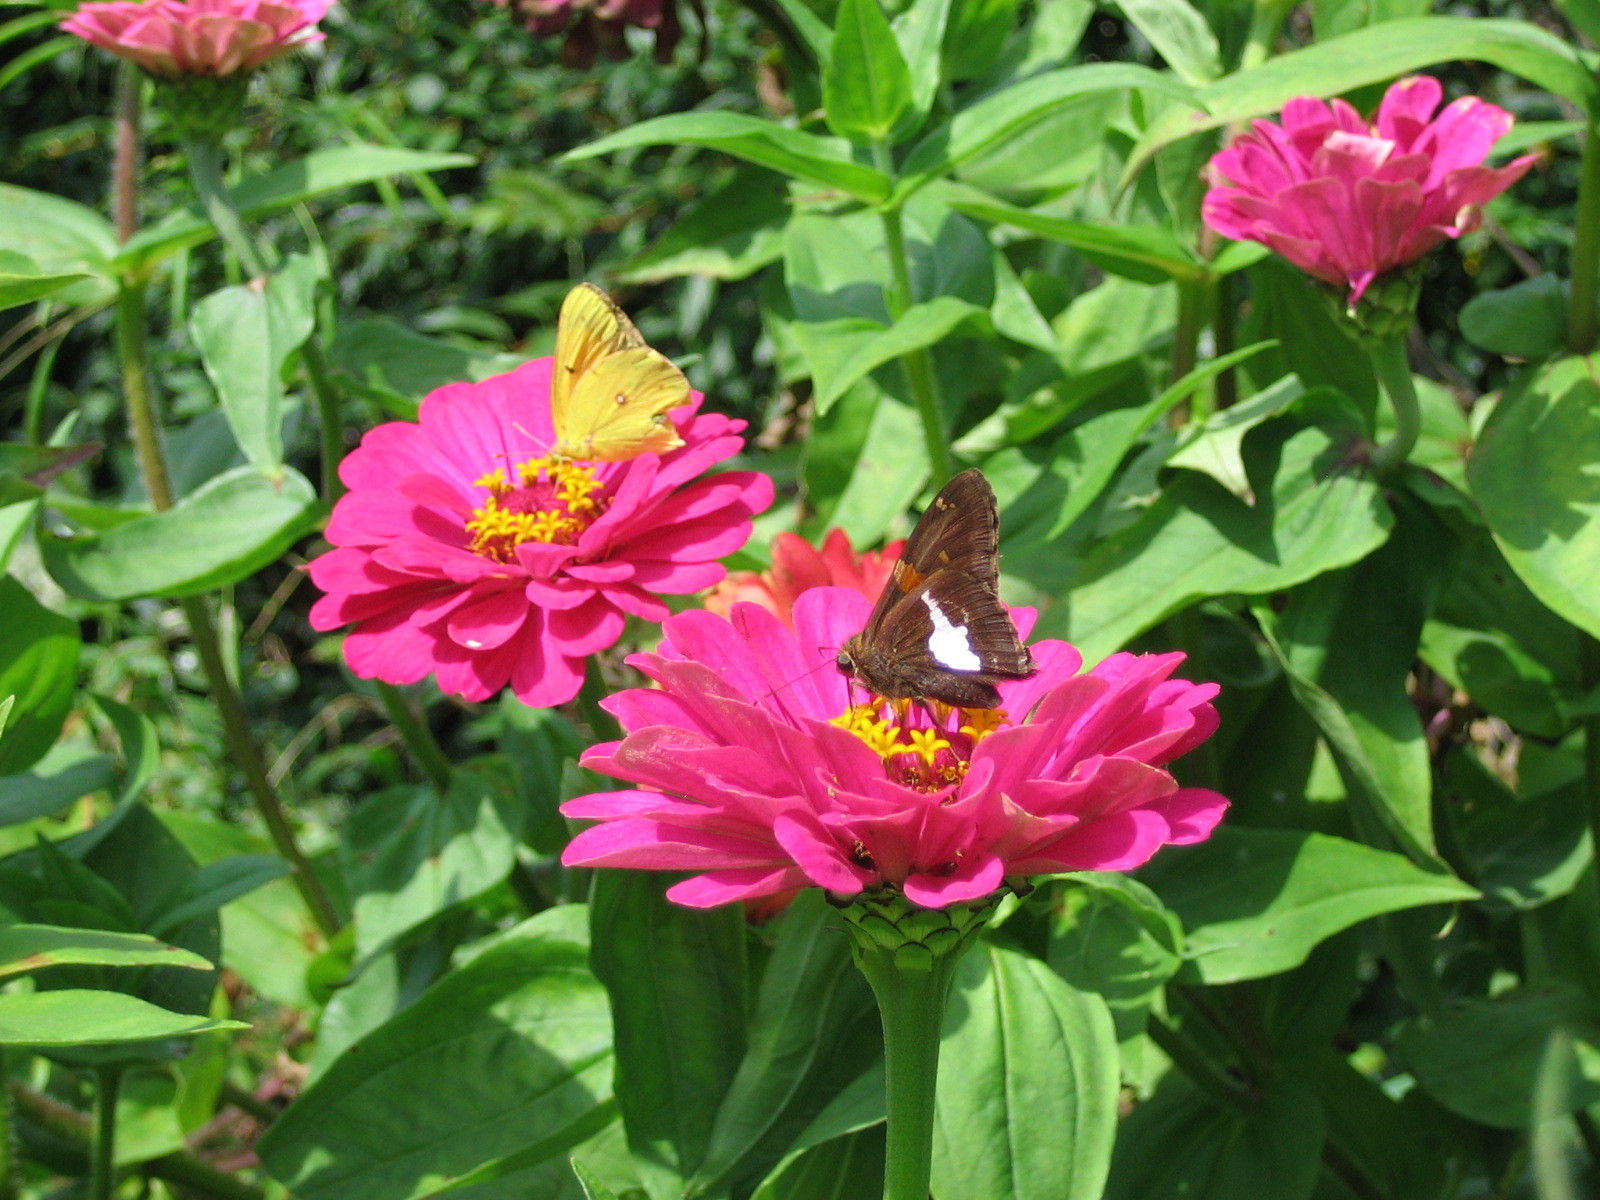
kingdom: Animalia
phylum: Arthropoda
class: Insecta
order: Lepidoptera
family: Pieridae
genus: Colias
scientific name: Colias eurytheme
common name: Alfalfa butterfly
